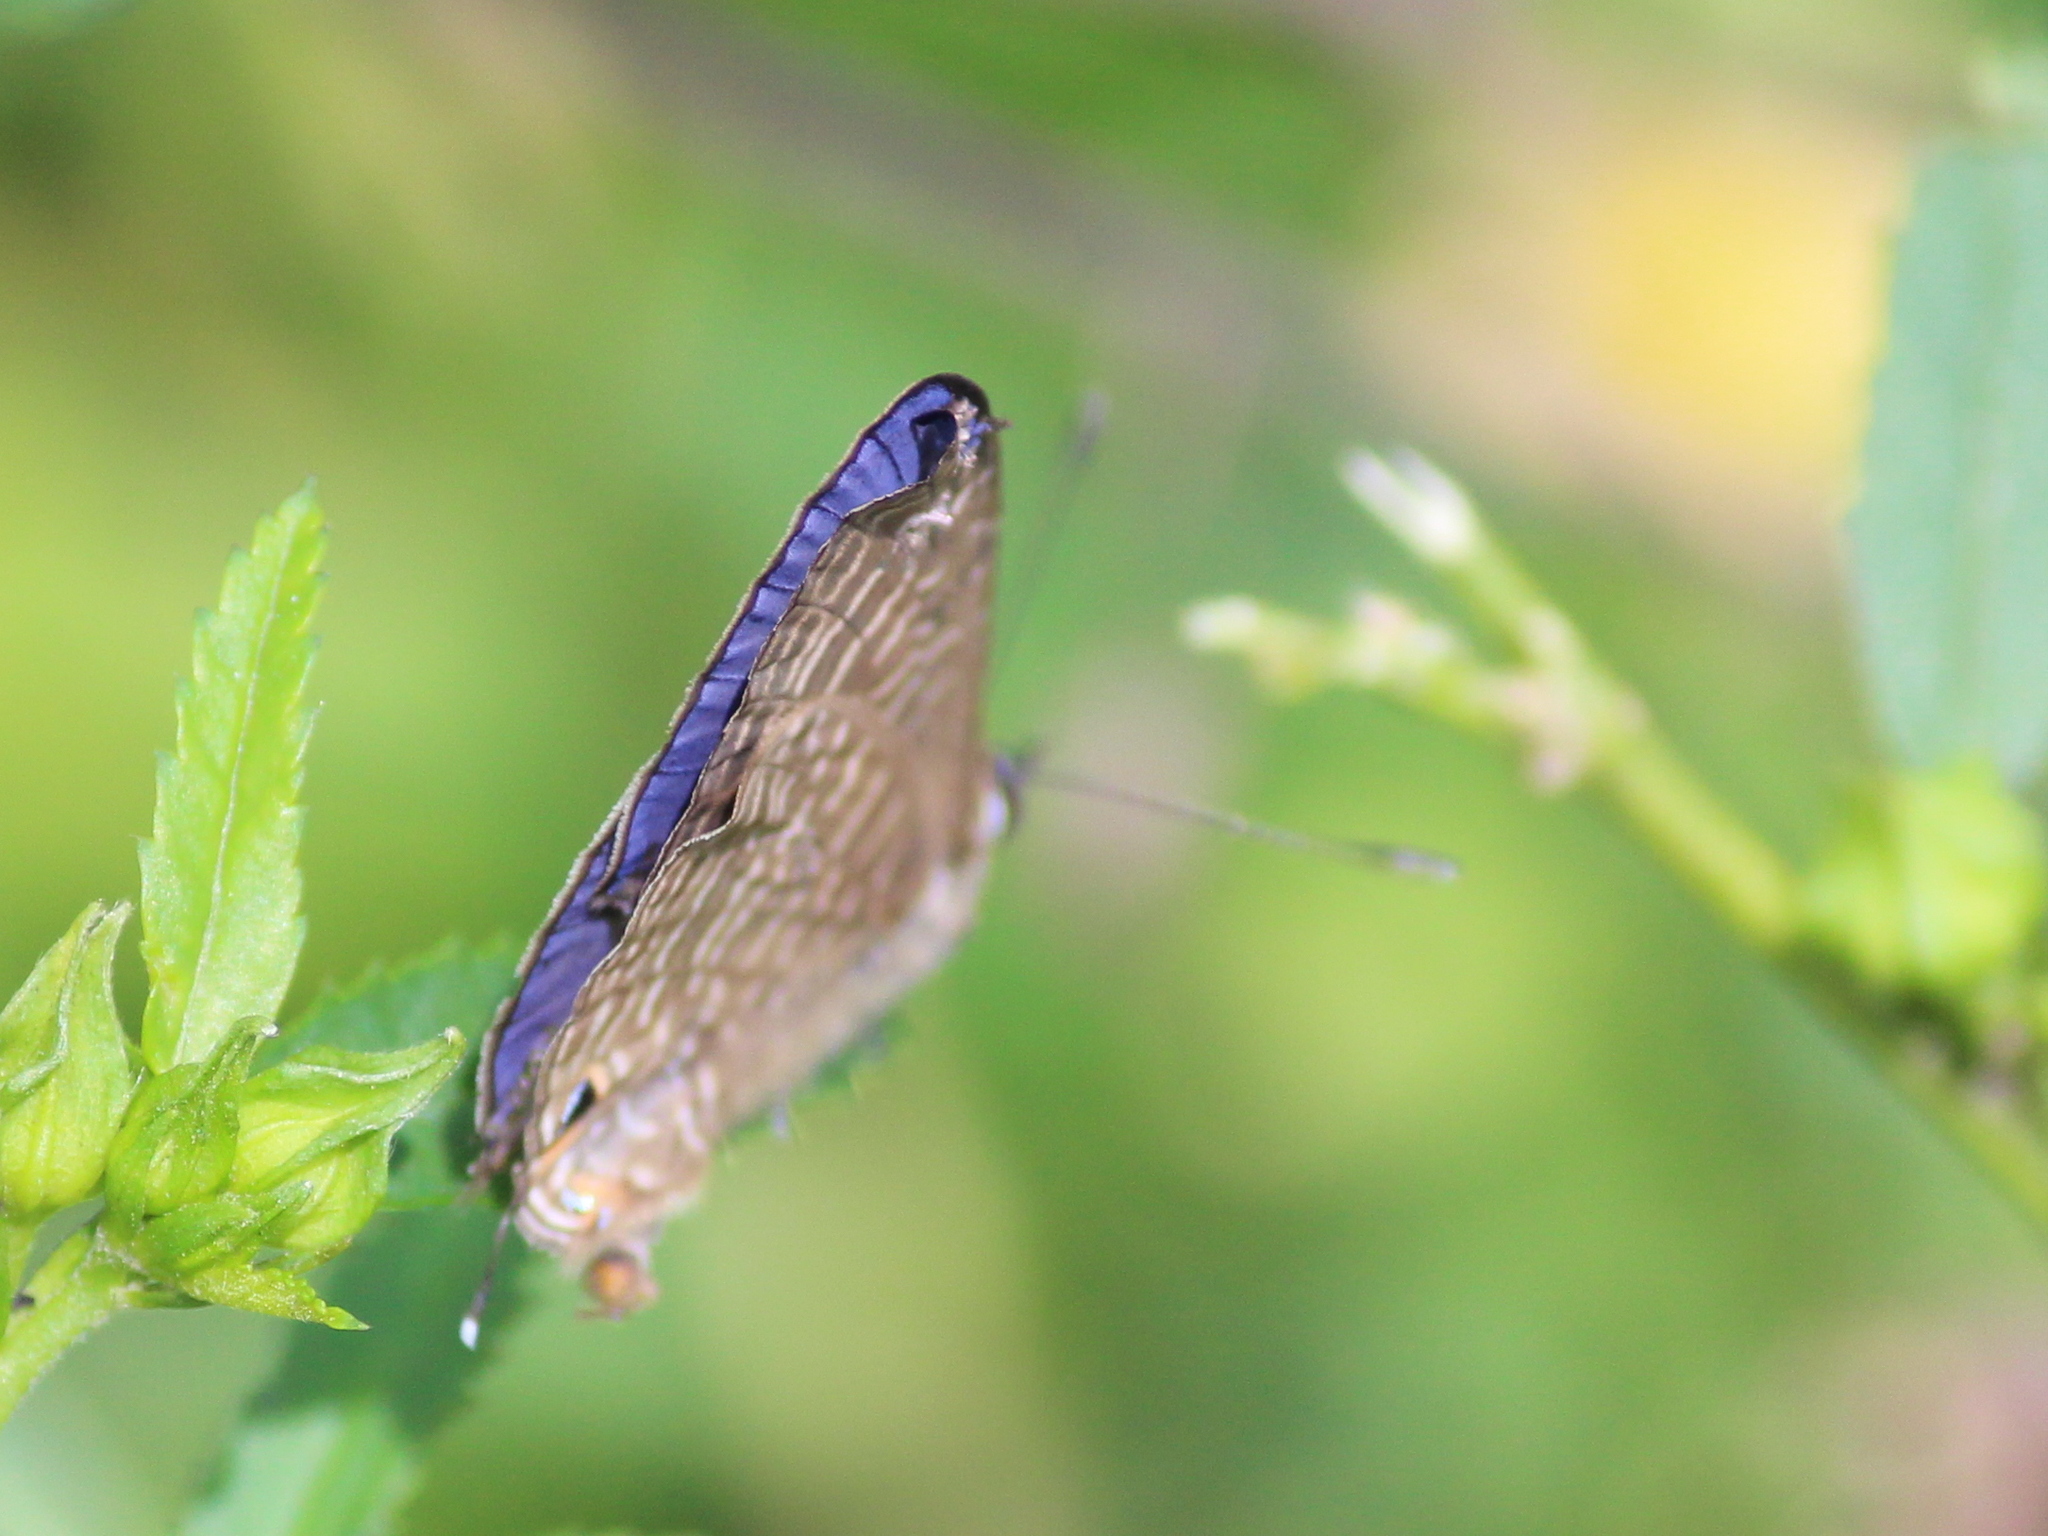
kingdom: Animalia
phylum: Arthropoda
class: Insecta
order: Lepidoptera
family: Lycaenidae
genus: Nacaduba
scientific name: Nacaduba beroe
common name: Opaque sixline blue
